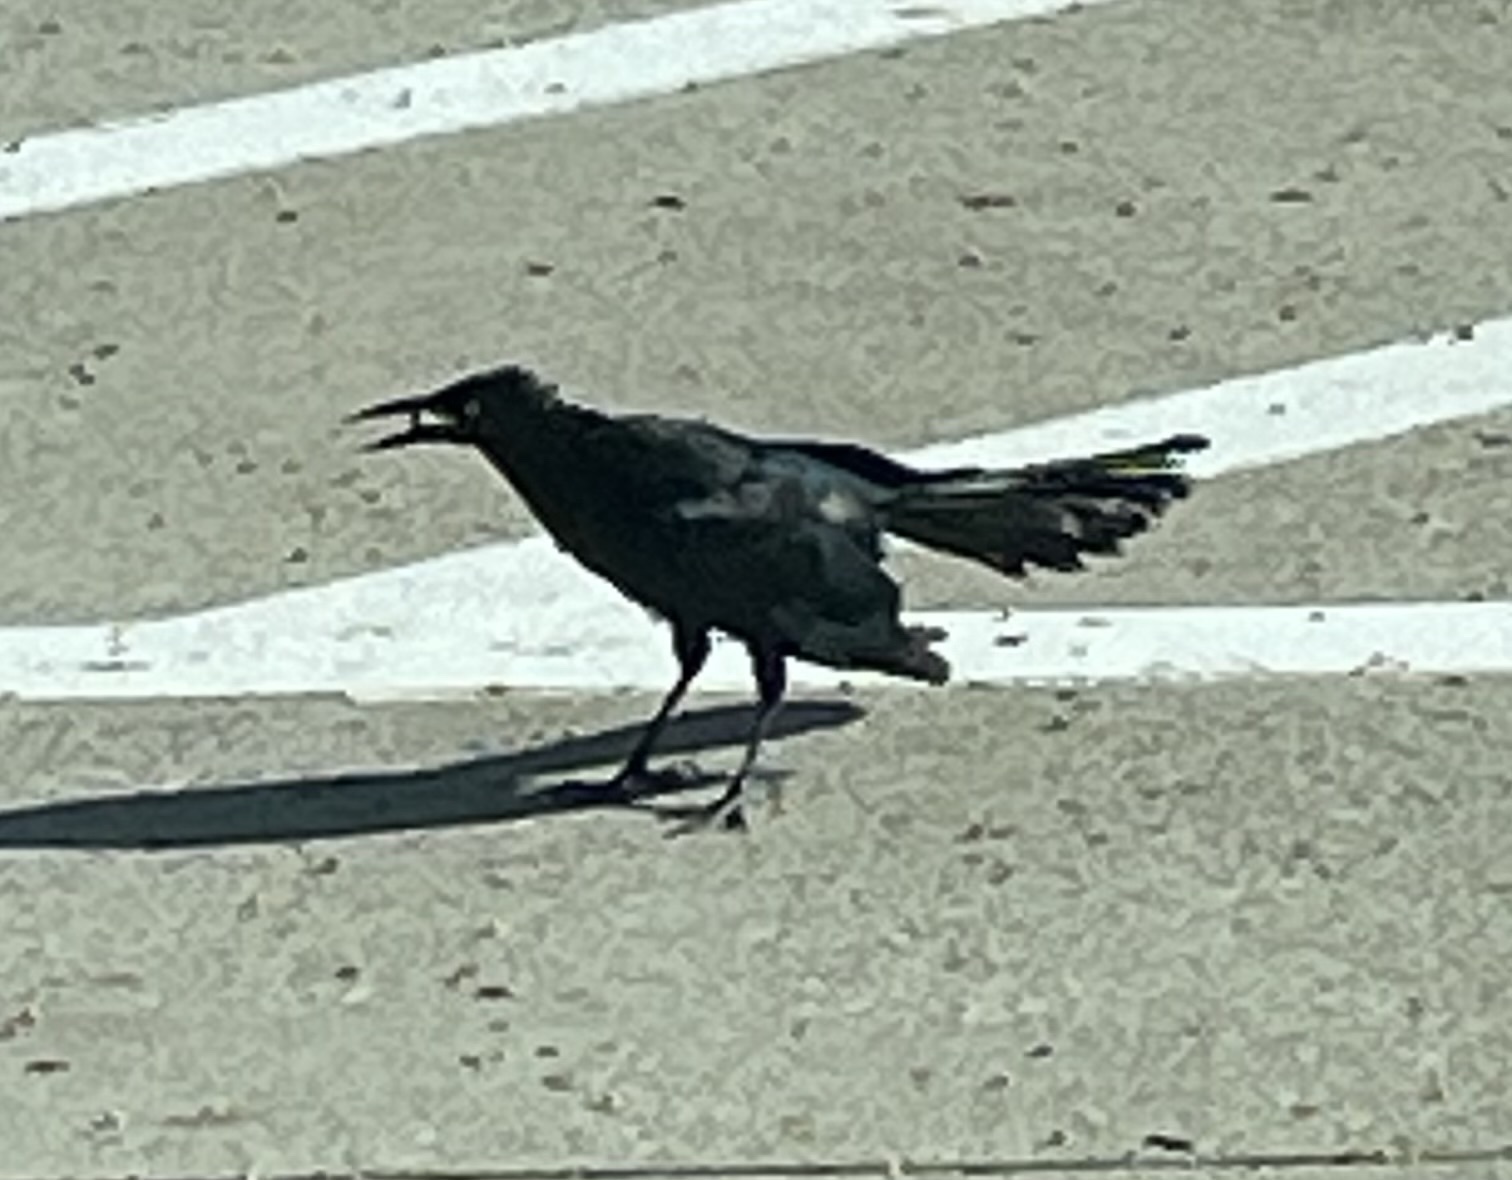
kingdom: Animalia
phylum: Chordata
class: Aves
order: Passeriformes
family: Icteridae
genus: Quiscalus
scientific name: Quiscalus mexicanus
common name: Great-tailed grackle
